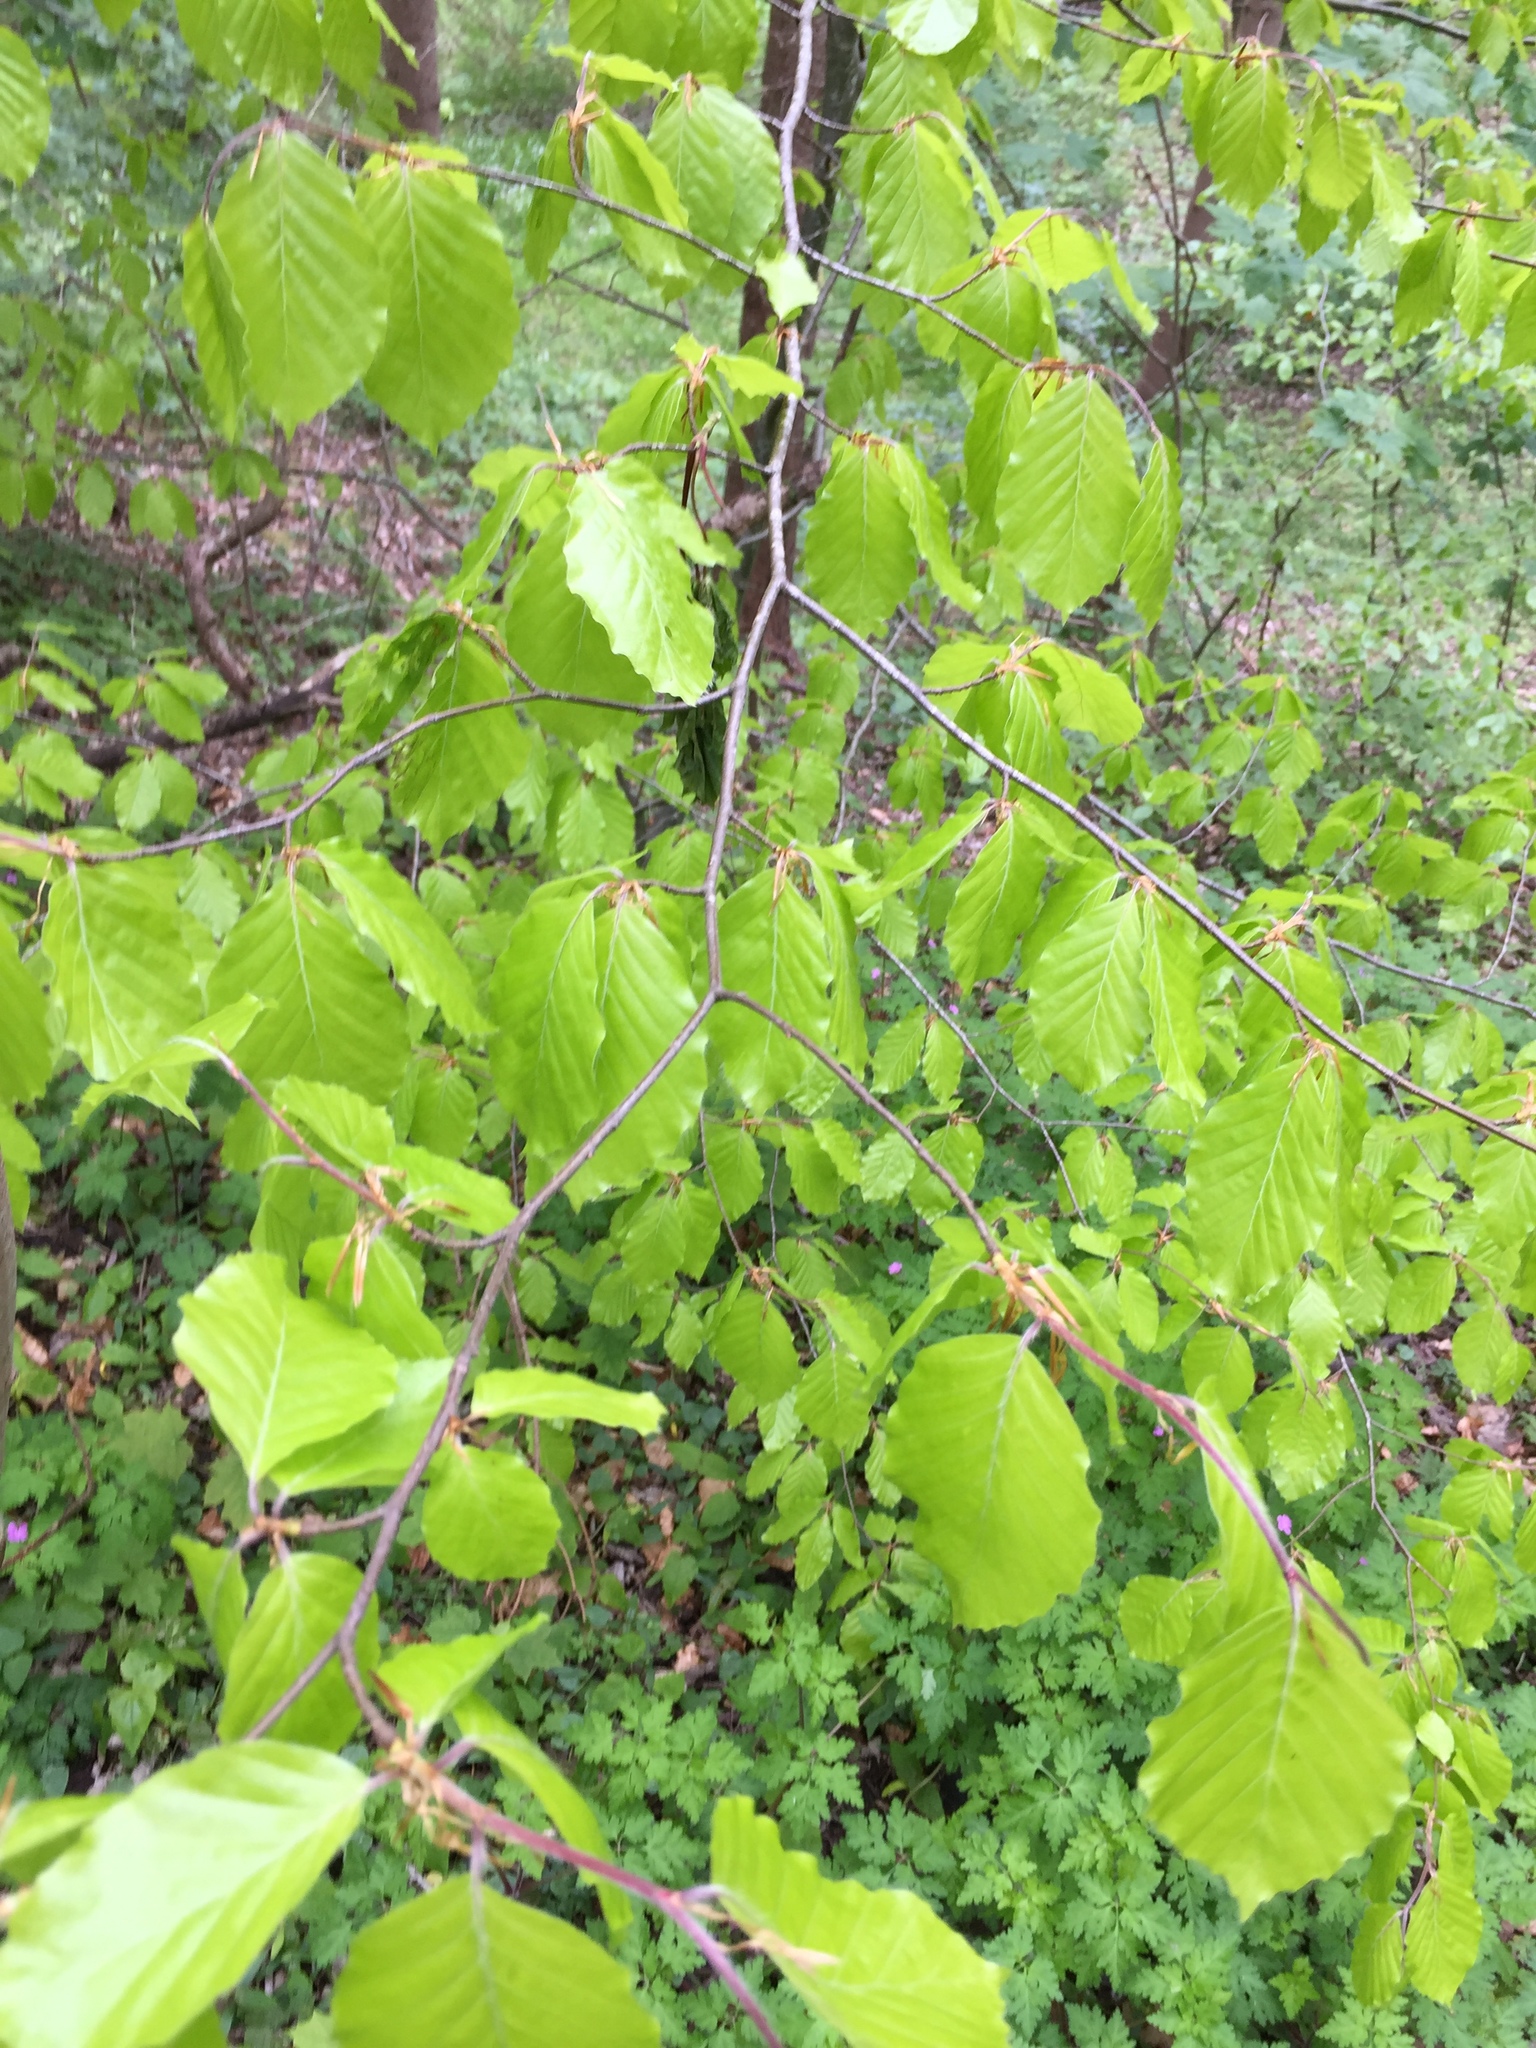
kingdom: Plantae
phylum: Tracheophyta
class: Magnoliopsida
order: Fagales
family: Fagaceae
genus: Fagus
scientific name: Fagus sylvatica
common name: Beech
